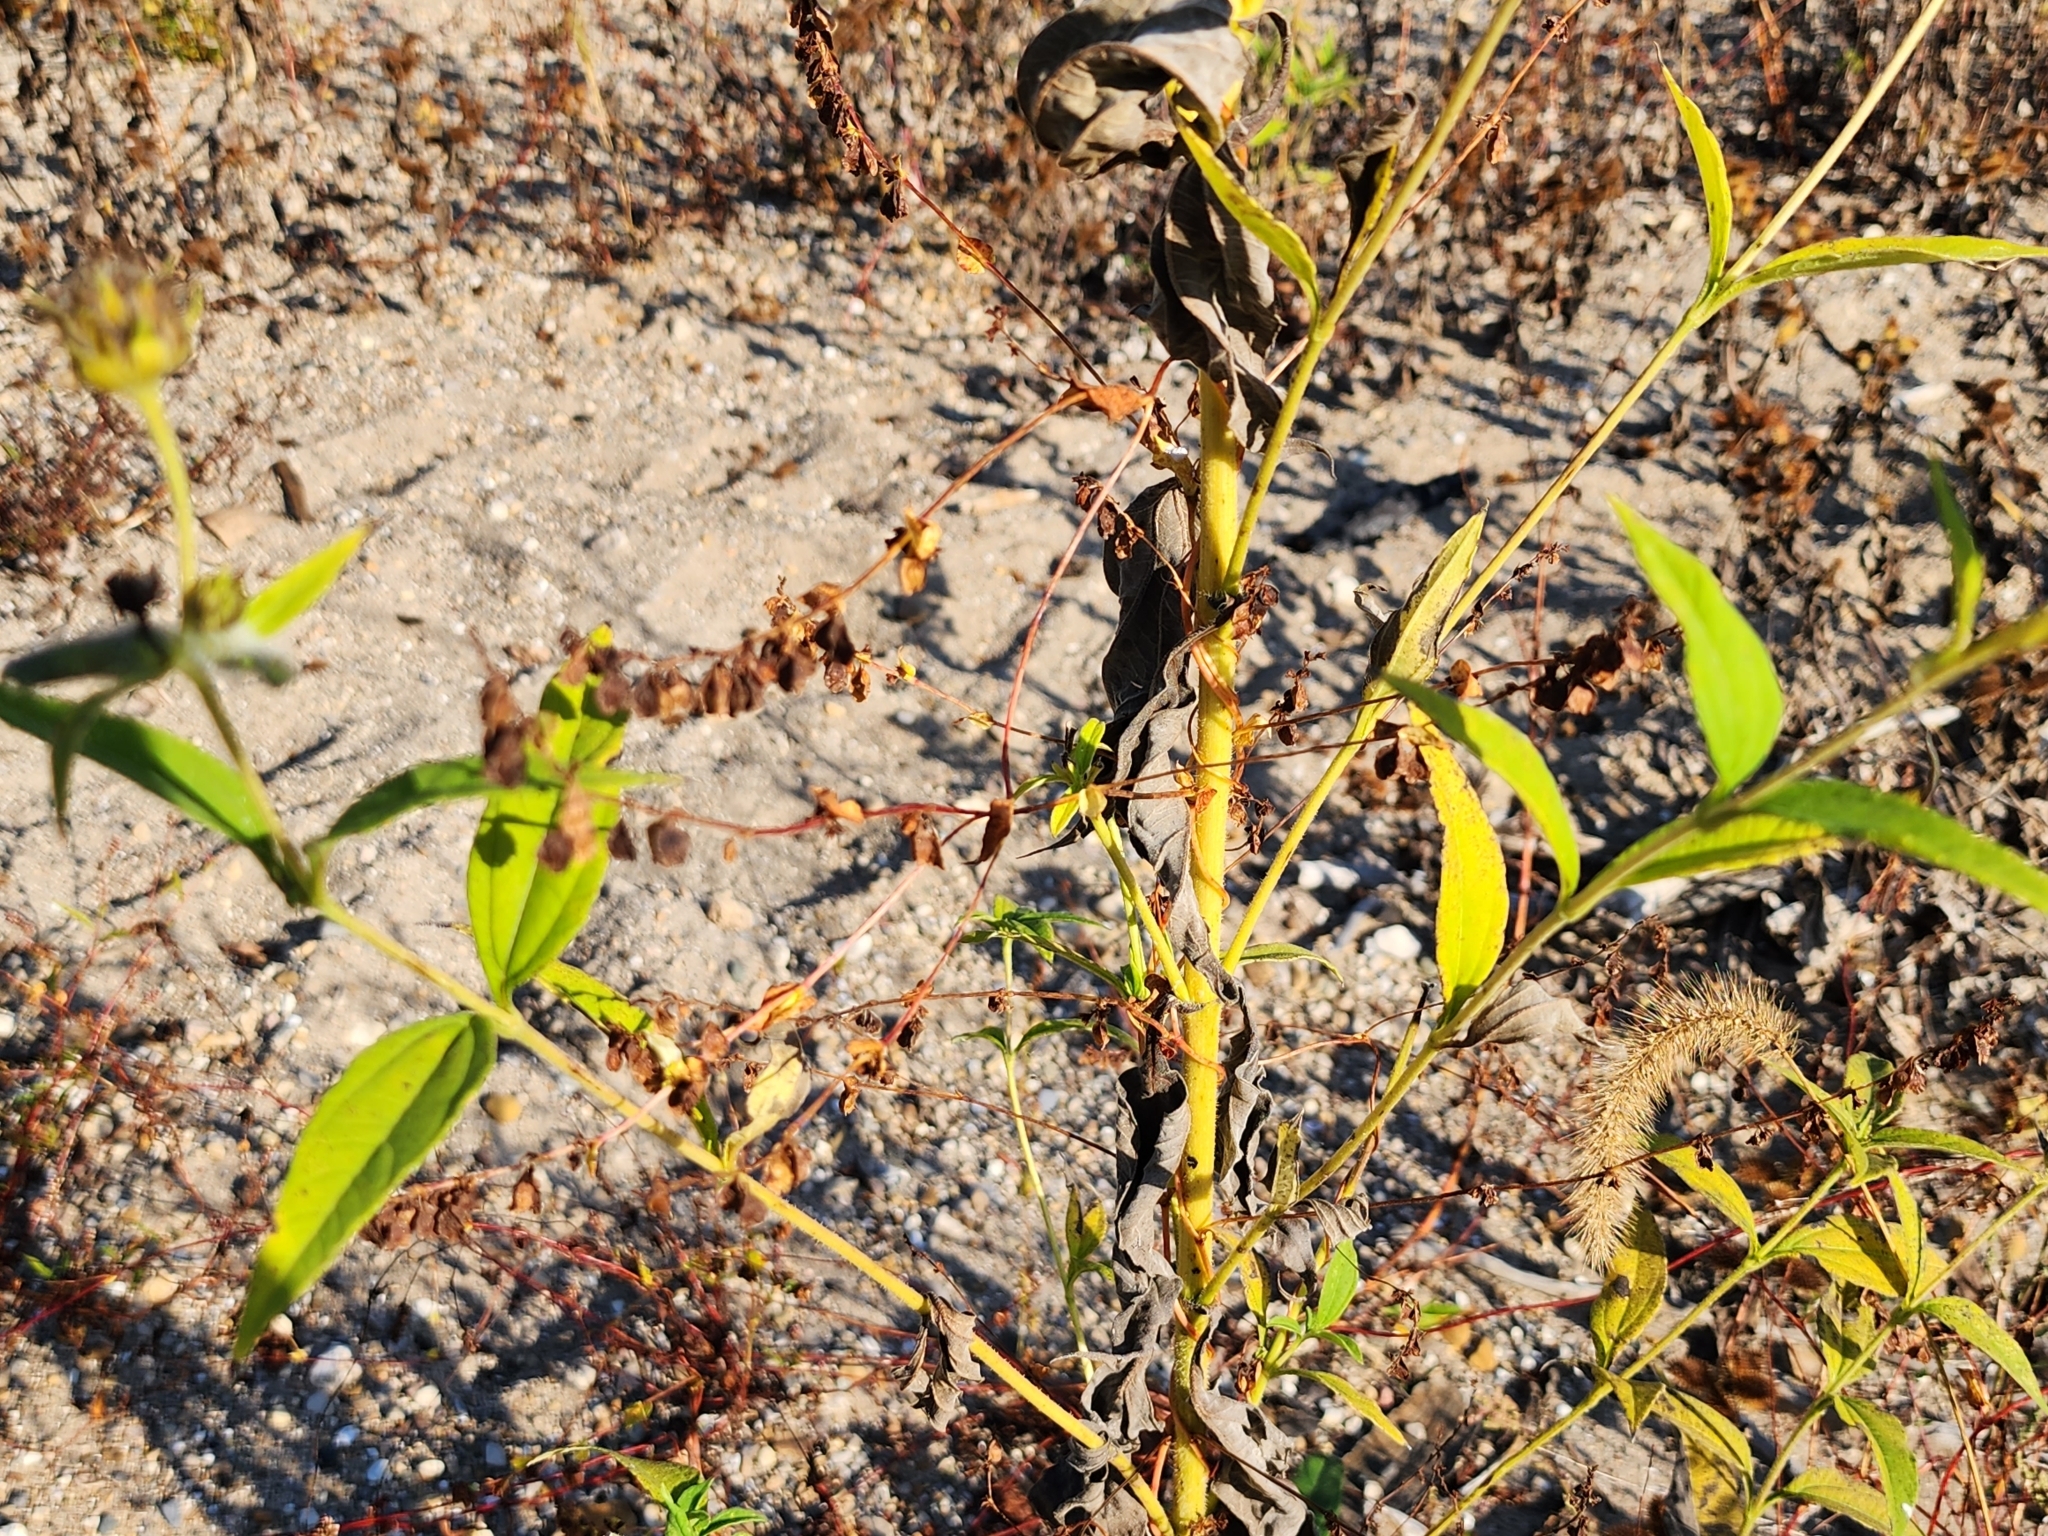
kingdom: Plantae
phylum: Tracheophyta
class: Magnoliopsida
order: Caryophyllales
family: Polygonaceae
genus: Fallopia
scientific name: Fallopia scandens
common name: Climbing false buckwheat
